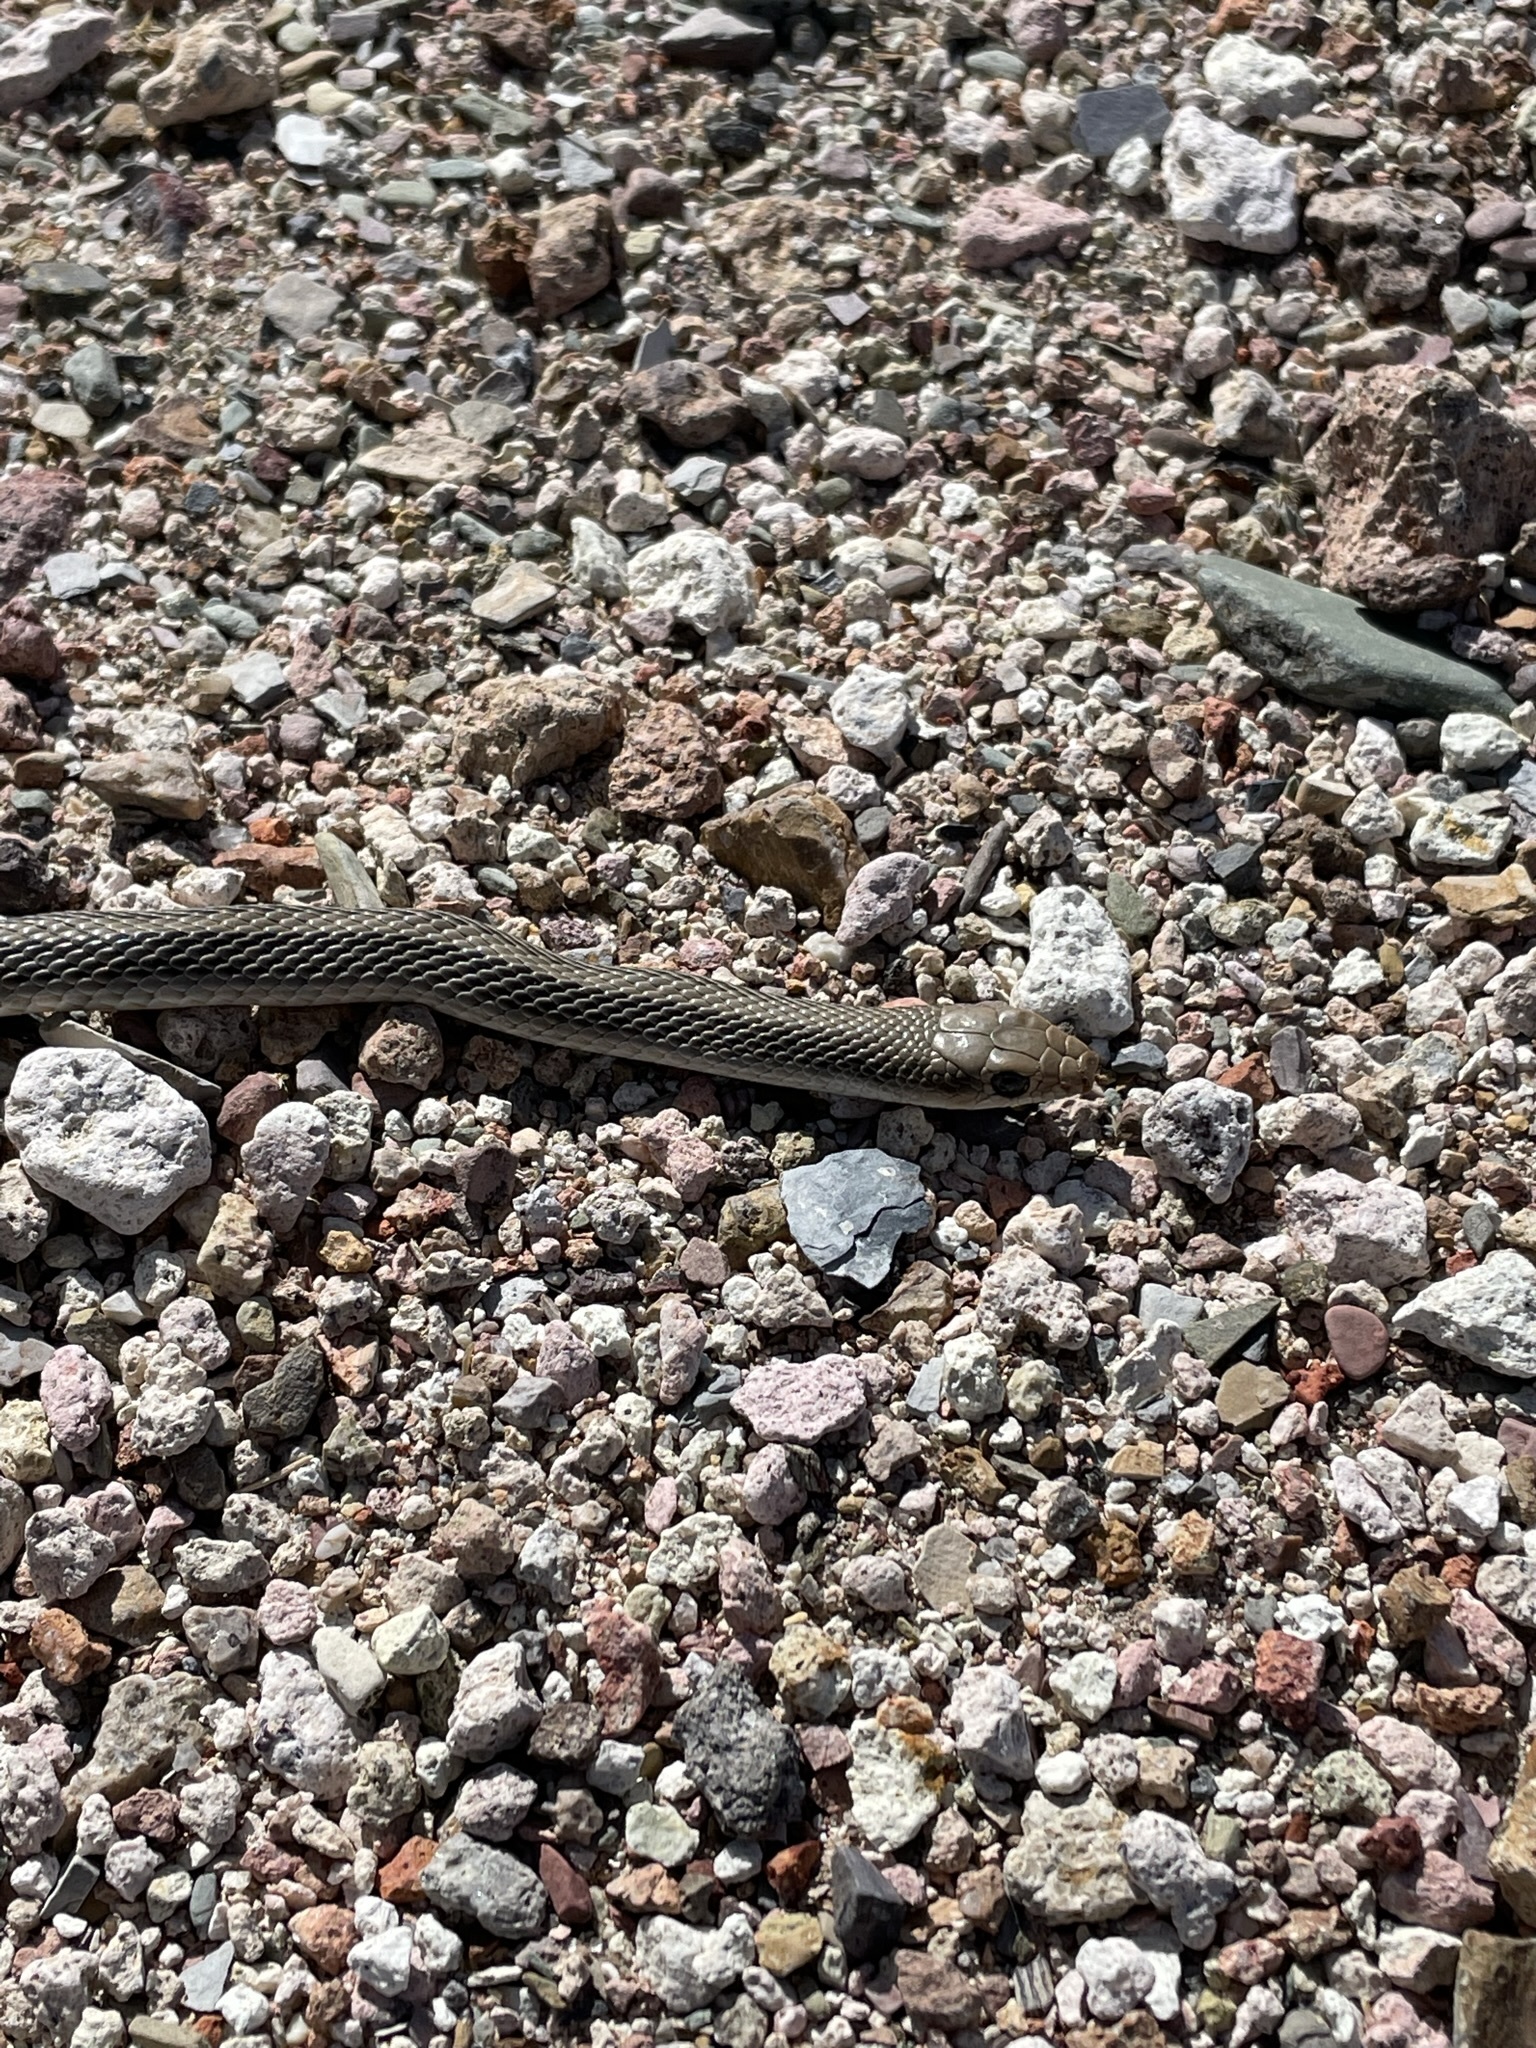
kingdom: Animalia
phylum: Chordata
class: Squamata
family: Colubridae
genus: Salvadora
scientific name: Salvadora hexalepis
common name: Western patchnose snake
